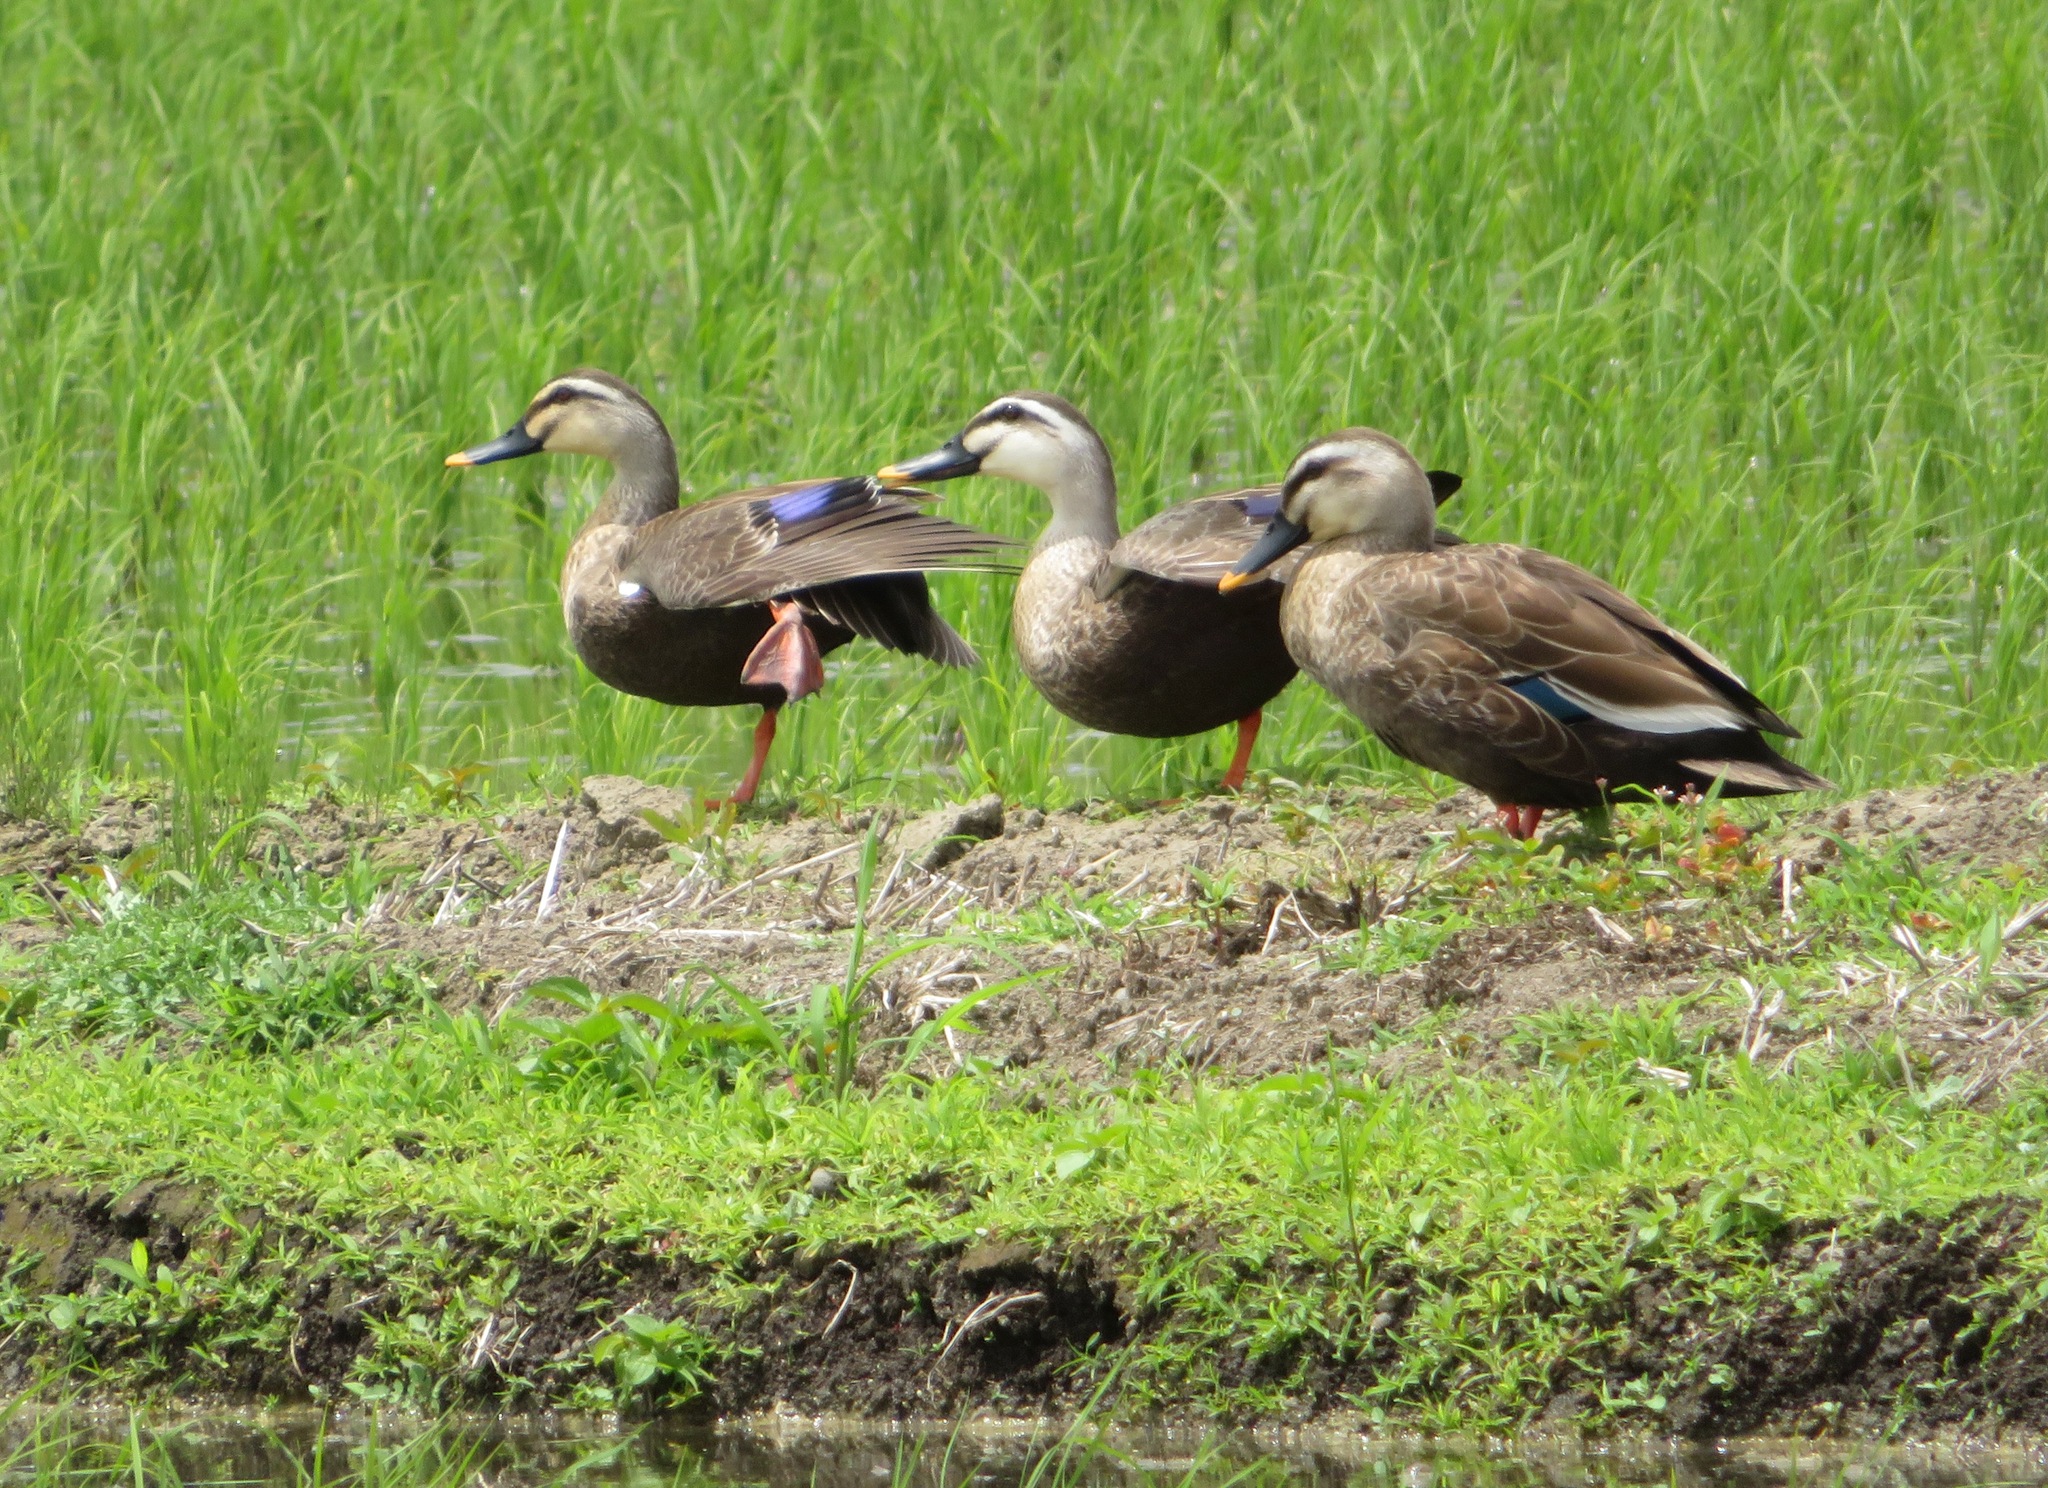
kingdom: Animalia
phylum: Chordata
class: Aves
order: Anseriformes
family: Anatidae
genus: Anas
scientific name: Anas zonorhyncha
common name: Eastern spot-billed duck
